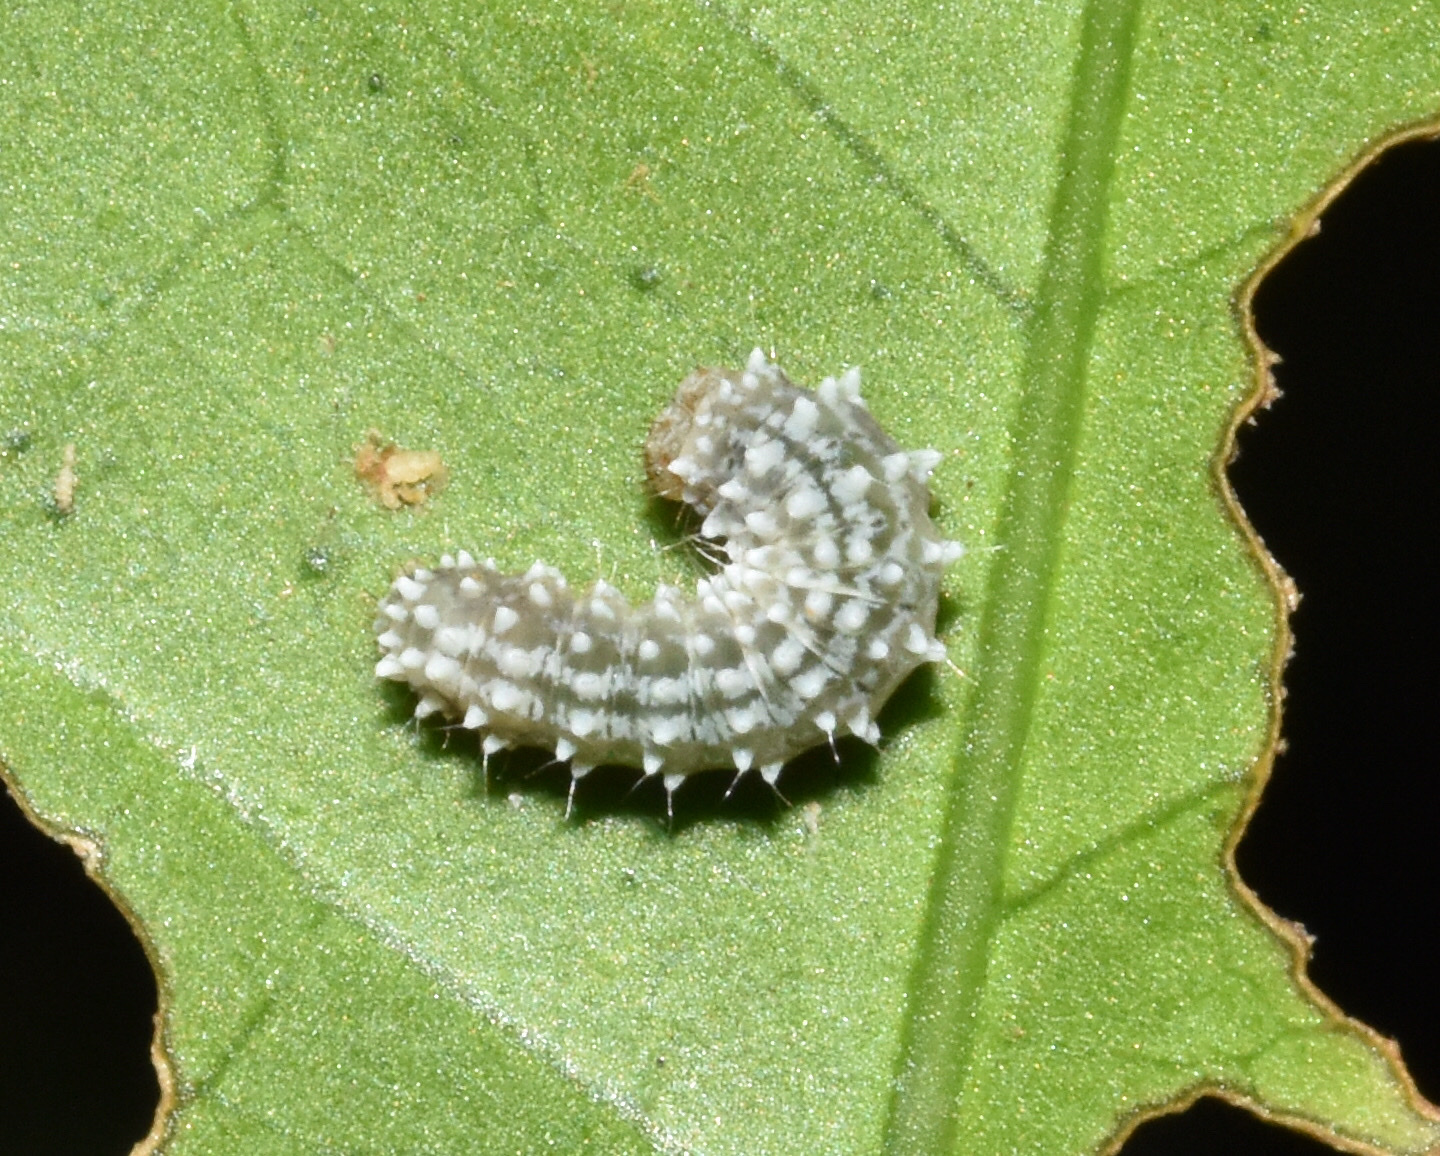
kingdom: Animalia
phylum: Arthropoda
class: Insecta
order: Lepidoptera
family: Uraniidae
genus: Leucoplema
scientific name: Leucoplema dohertyii
